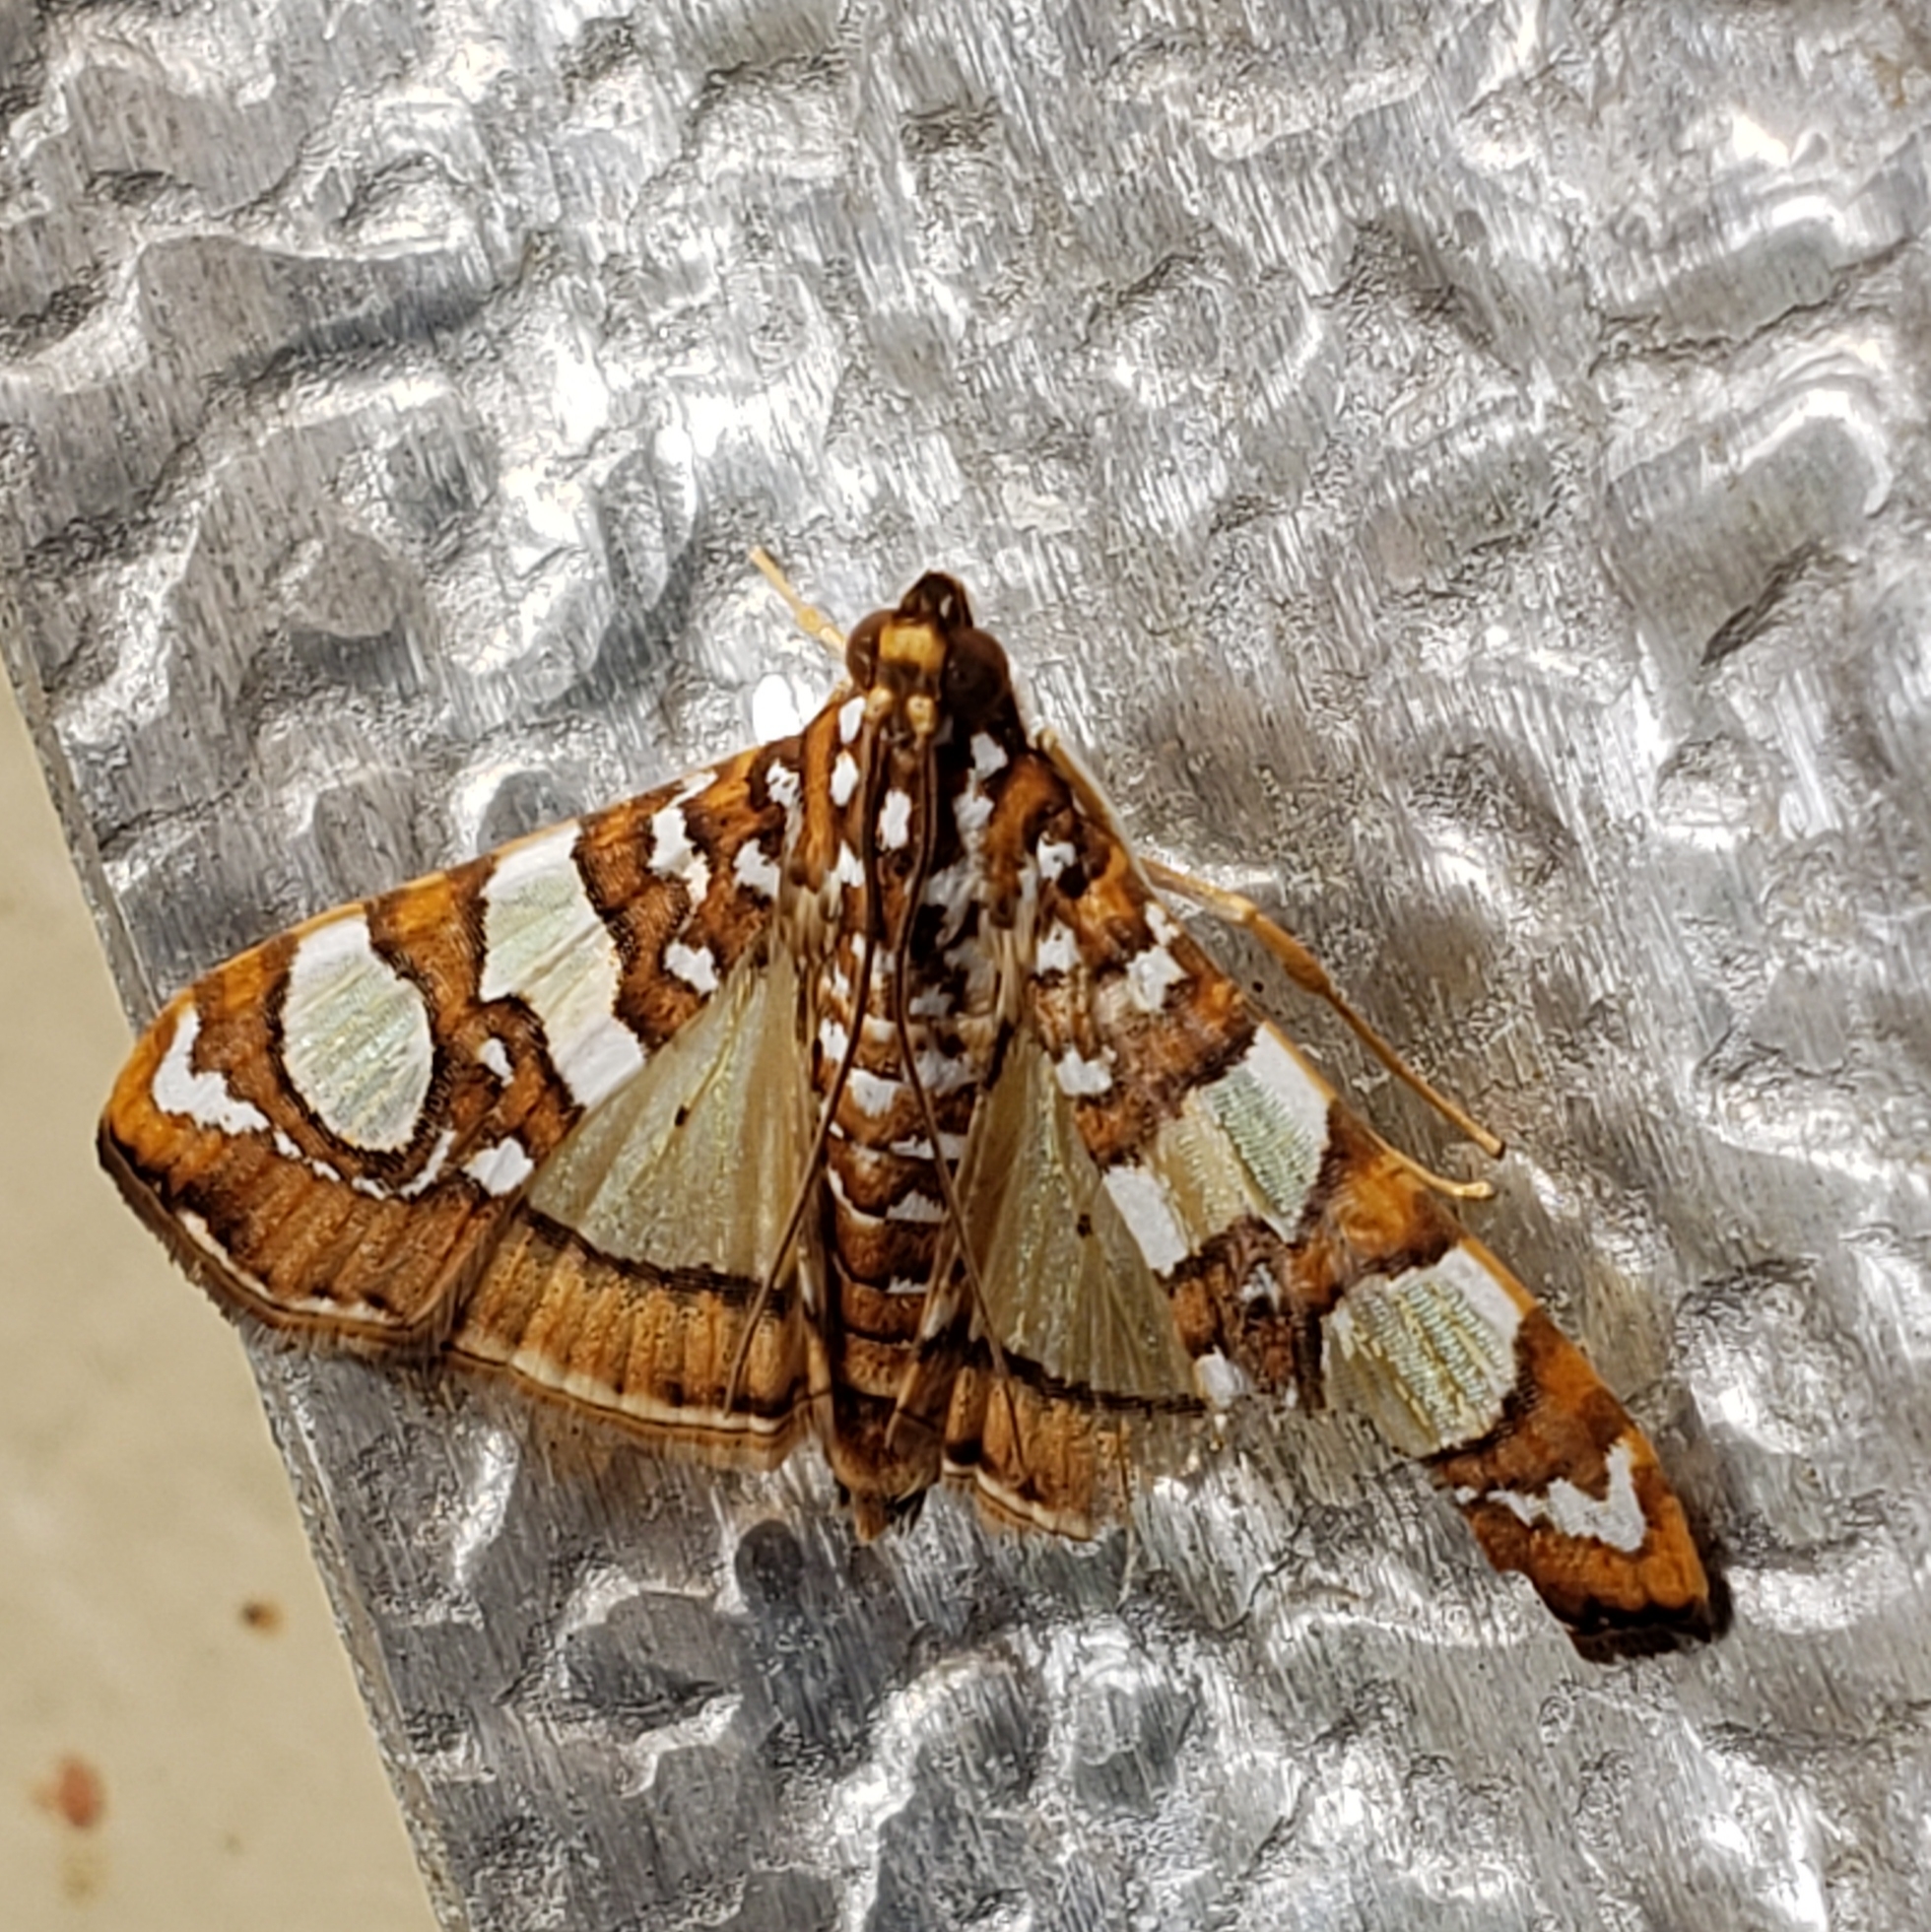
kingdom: Animalia
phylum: Arthropoda
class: Insecta
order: Lepidoptera
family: Crambidae
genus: Glyphodes
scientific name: Glyphodes sibillalis
